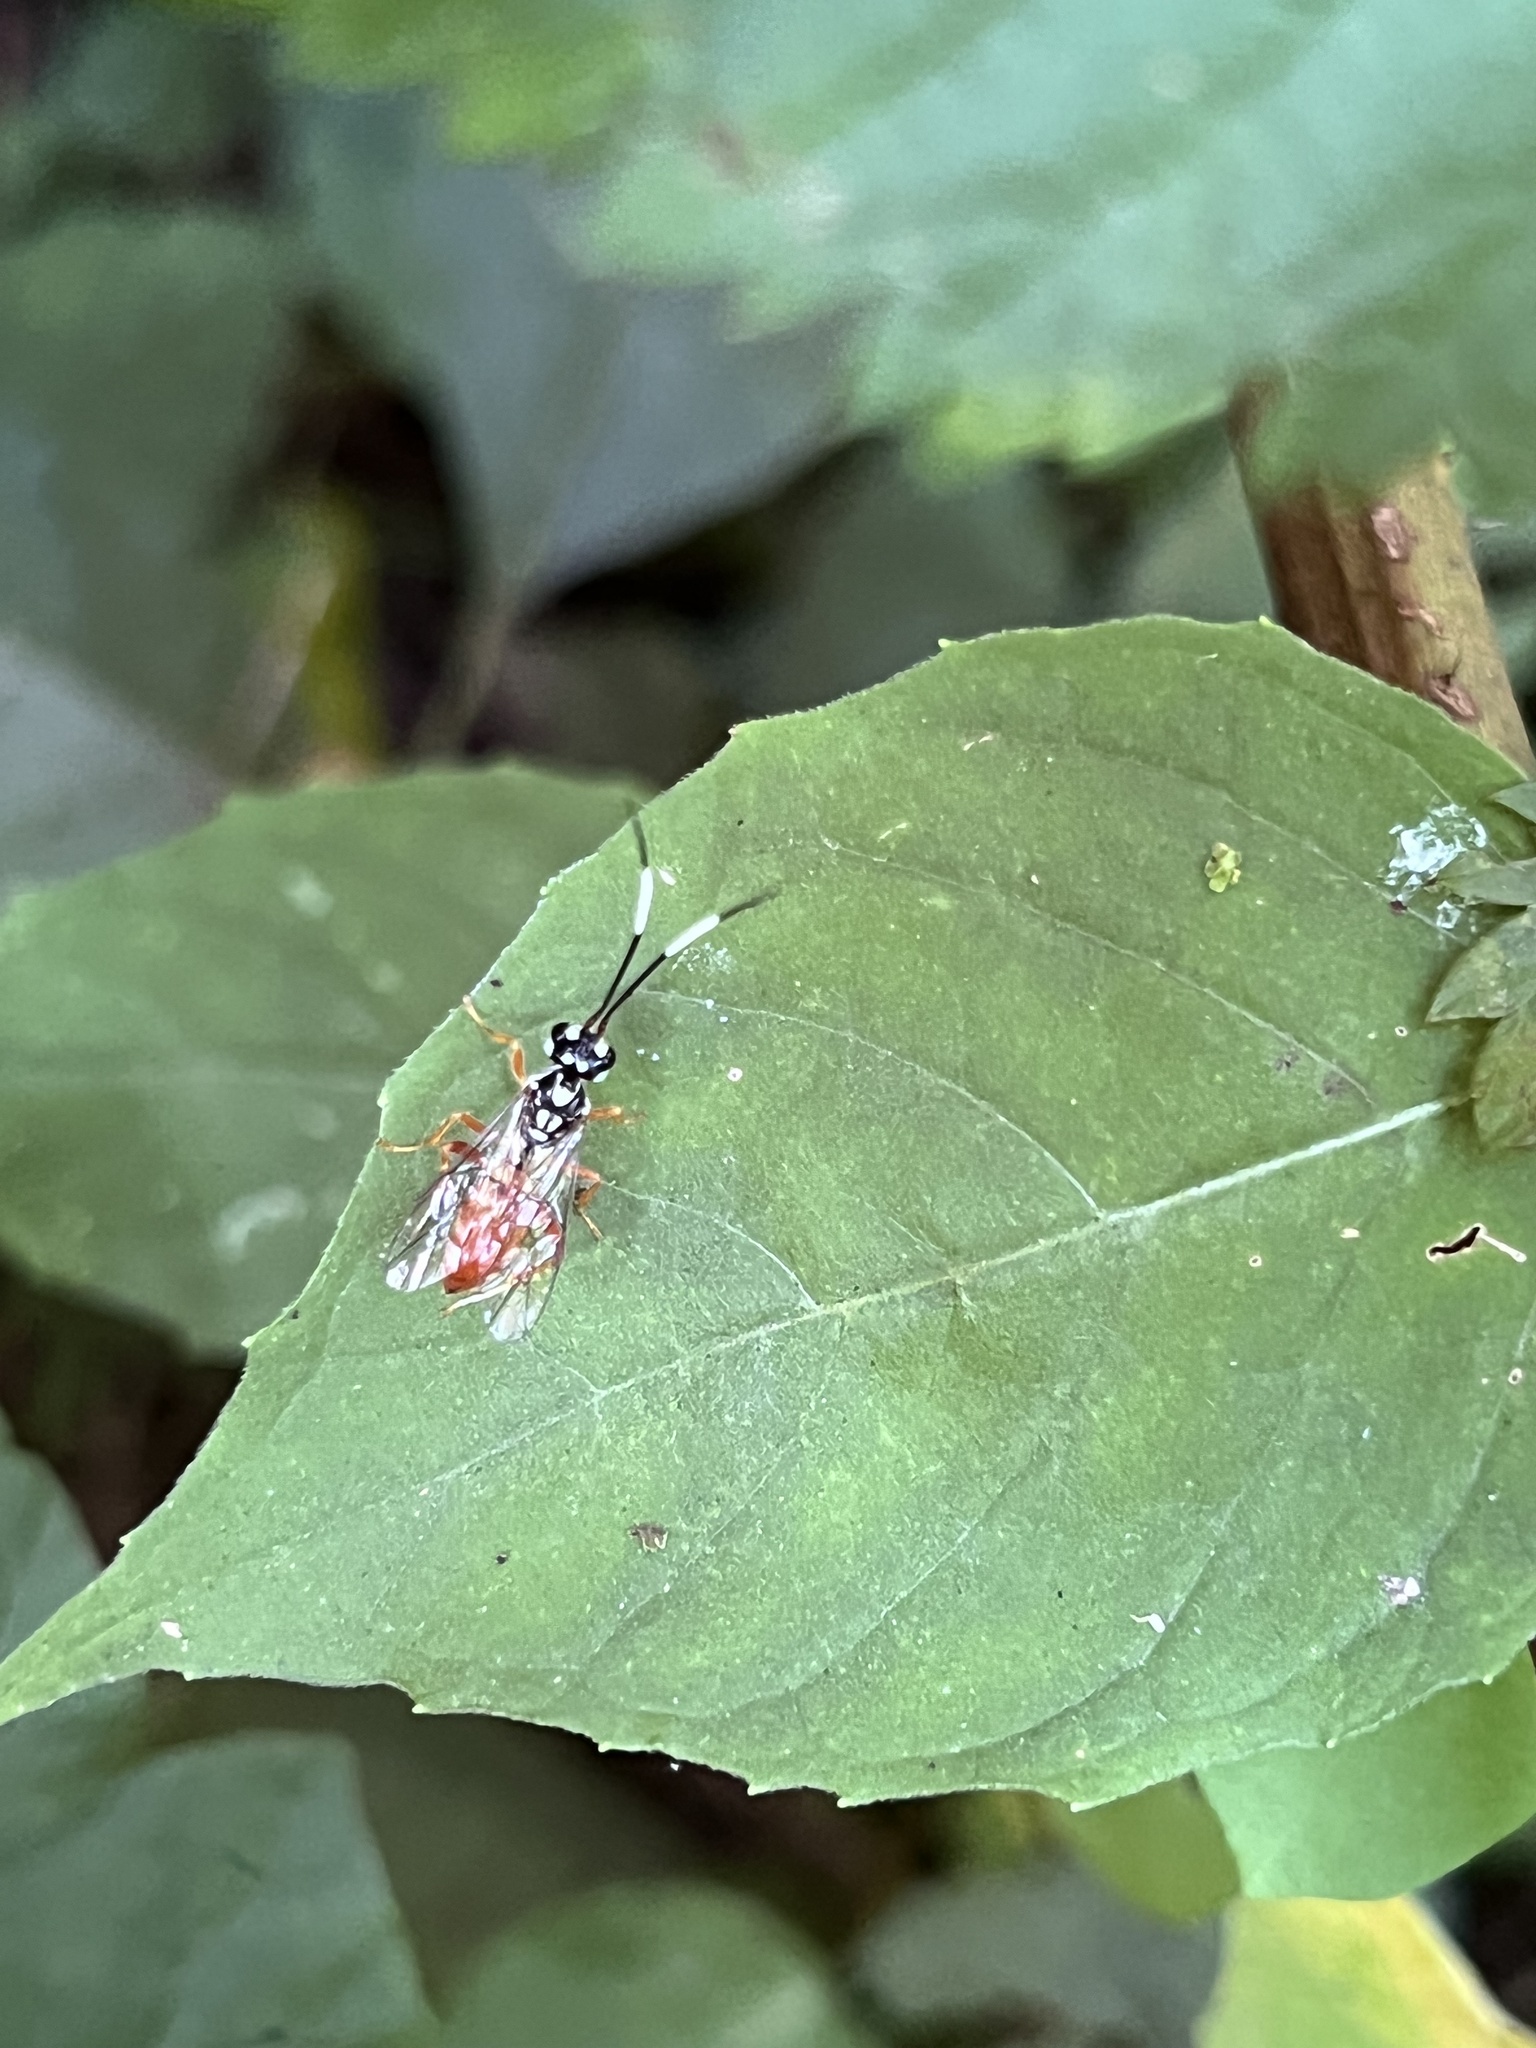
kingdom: Animalia
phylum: Arthropoda
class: Insecta
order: Hymenoptera
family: Trigonalidae
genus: Orthogonalys
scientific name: Orthogonalys pulchella
